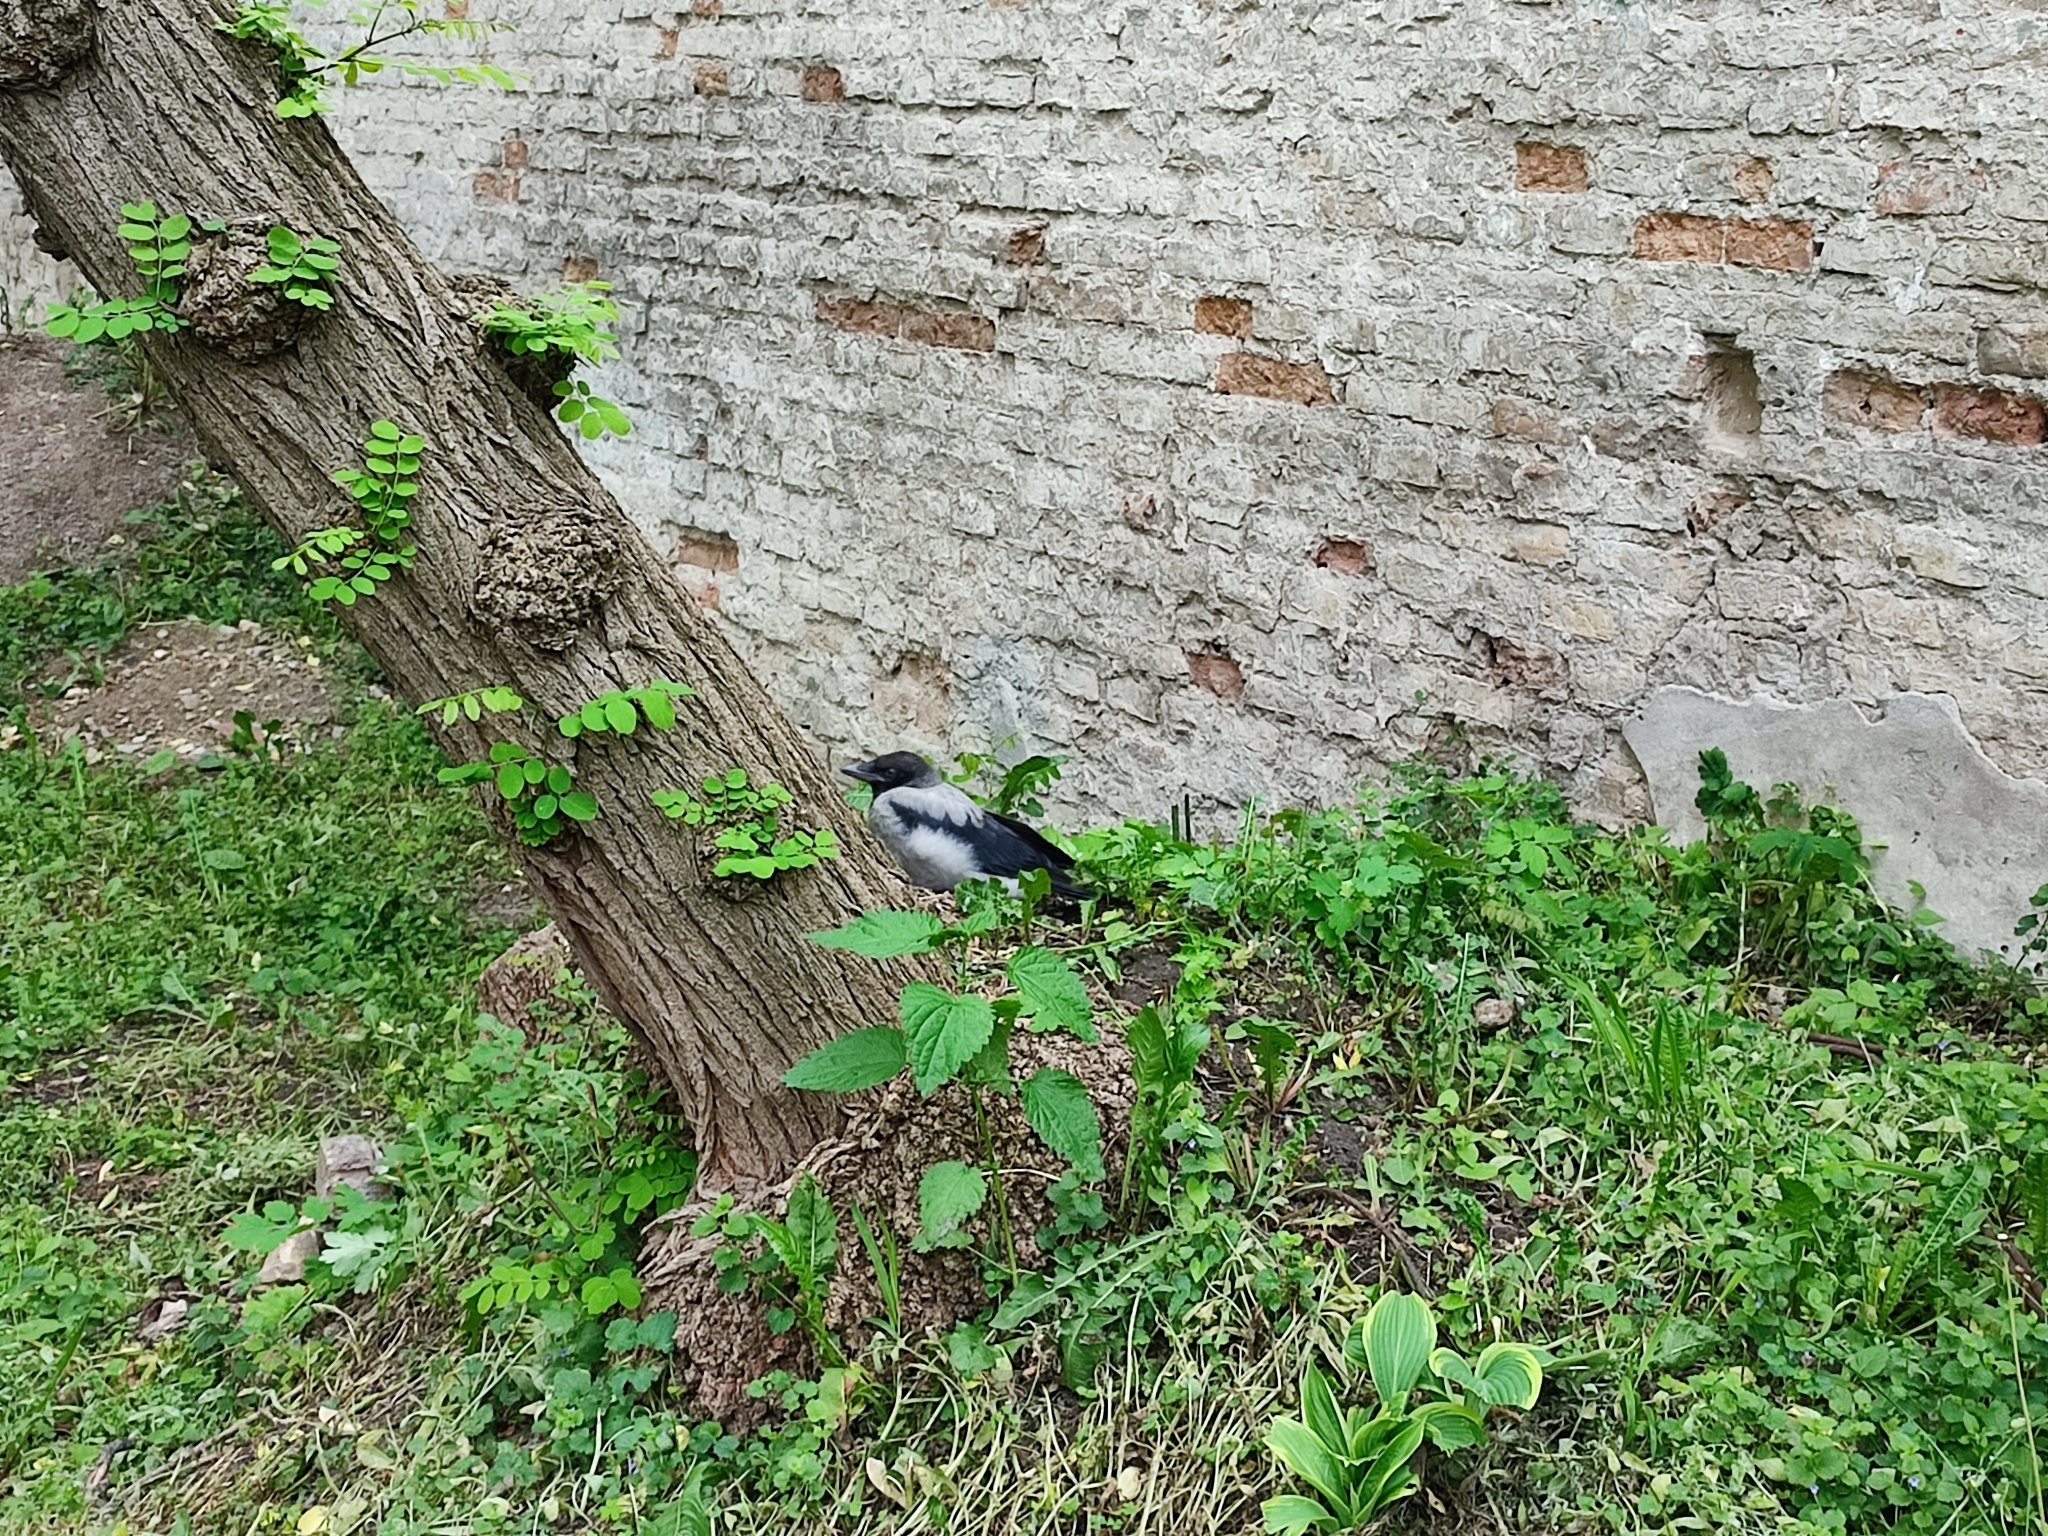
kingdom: Animalia
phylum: Chordata
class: Aves
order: Passeriformes
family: Corvidae
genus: Corvus
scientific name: Corvus cornix
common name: Hooded crow
